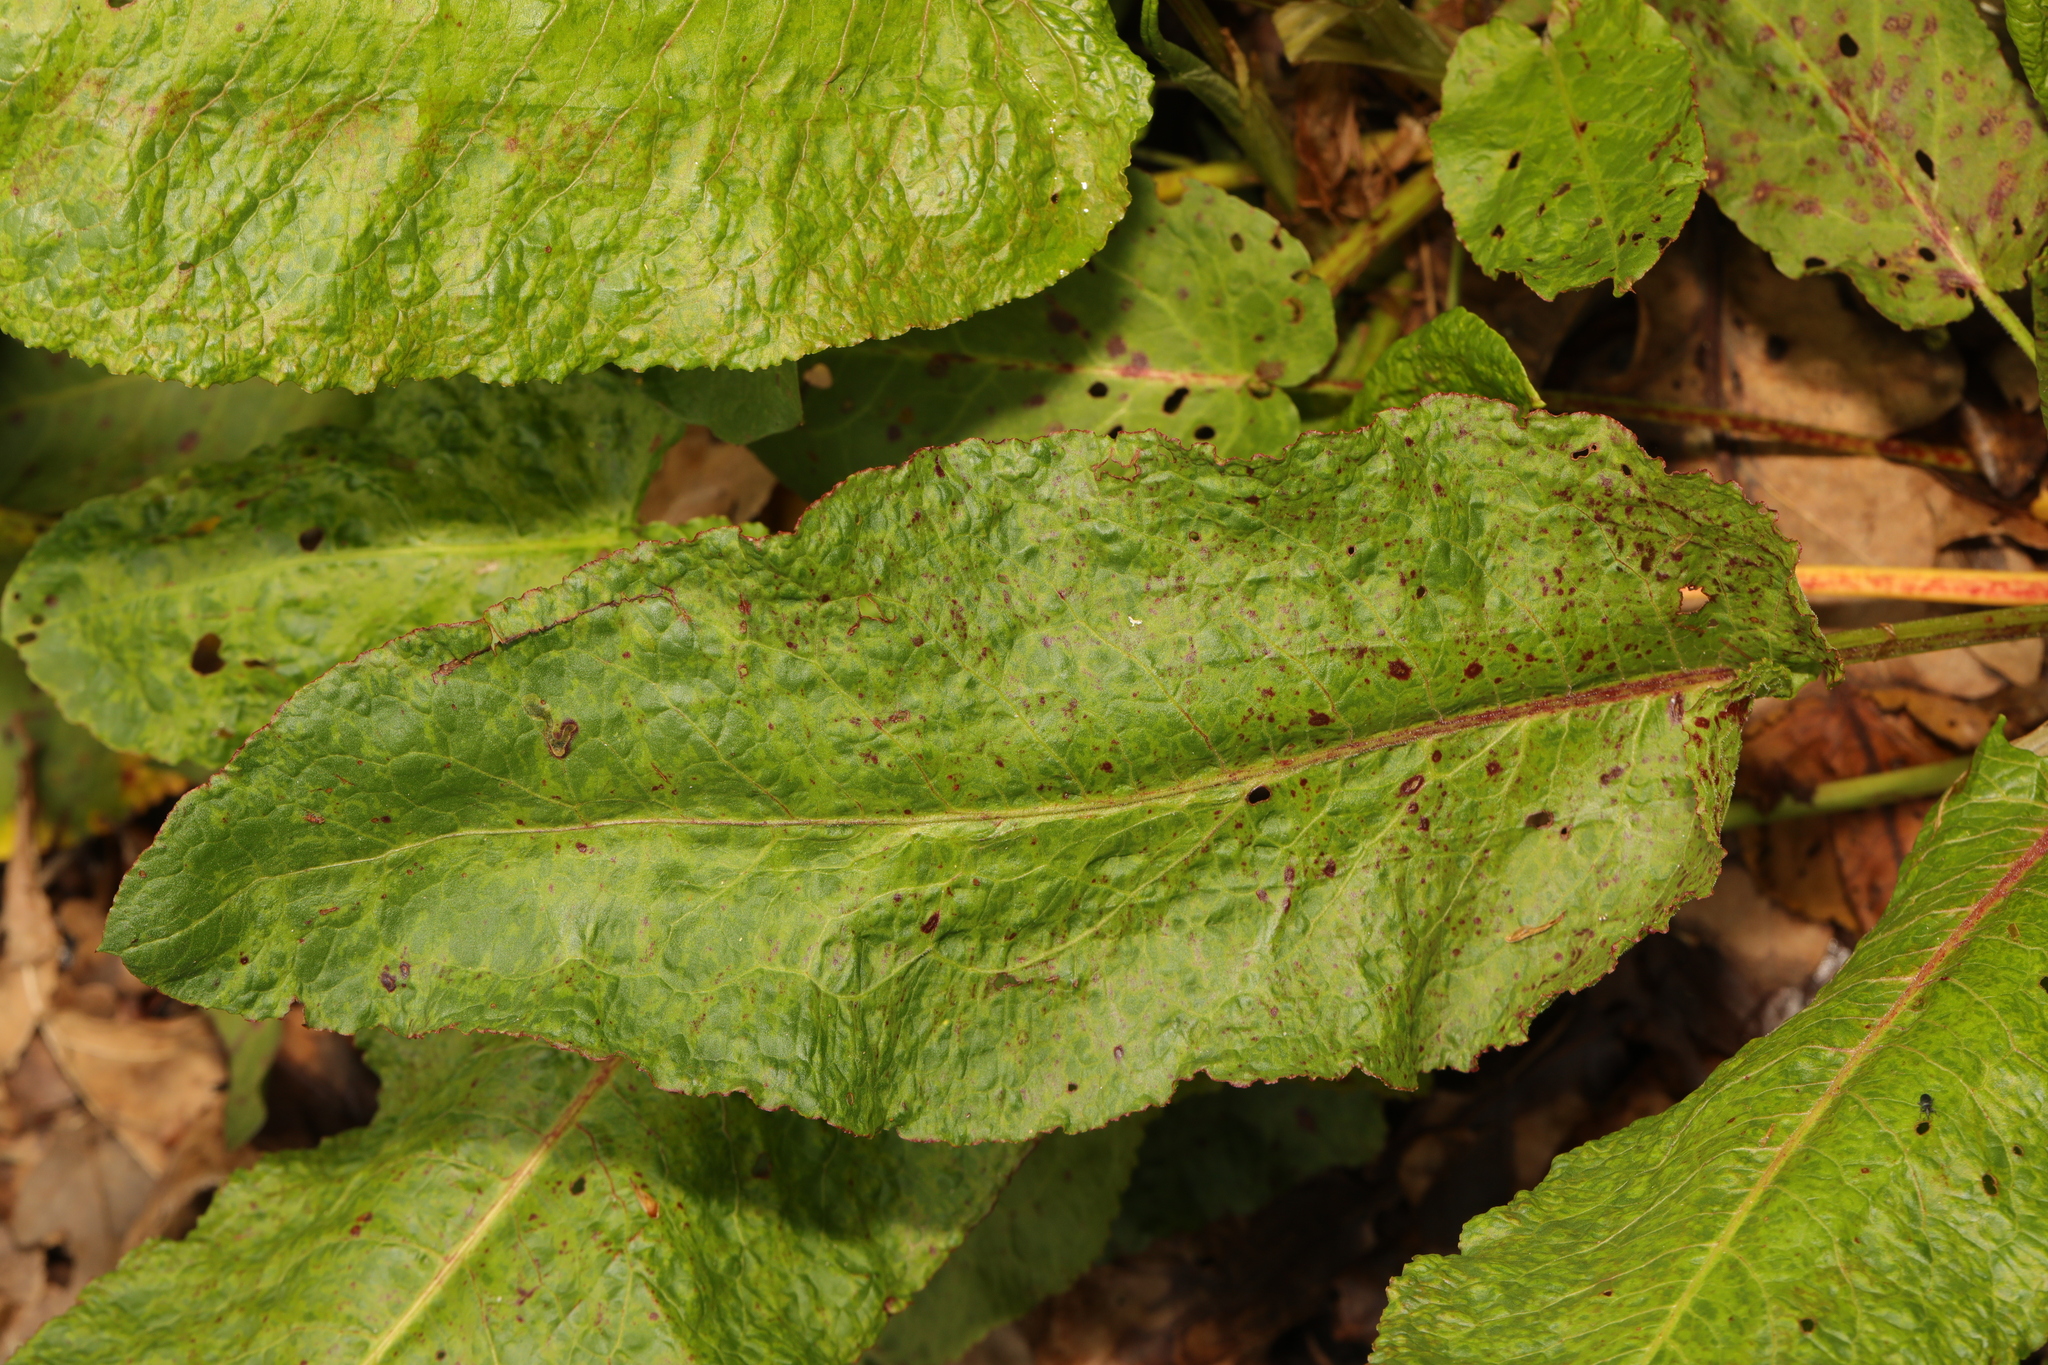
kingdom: Plantae
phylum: Tracheophyta
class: Magnoliopsida
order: Caryophyllales
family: Polygonaceae
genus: Rumex
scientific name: Rumex obtusifolius
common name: Bitter dock
